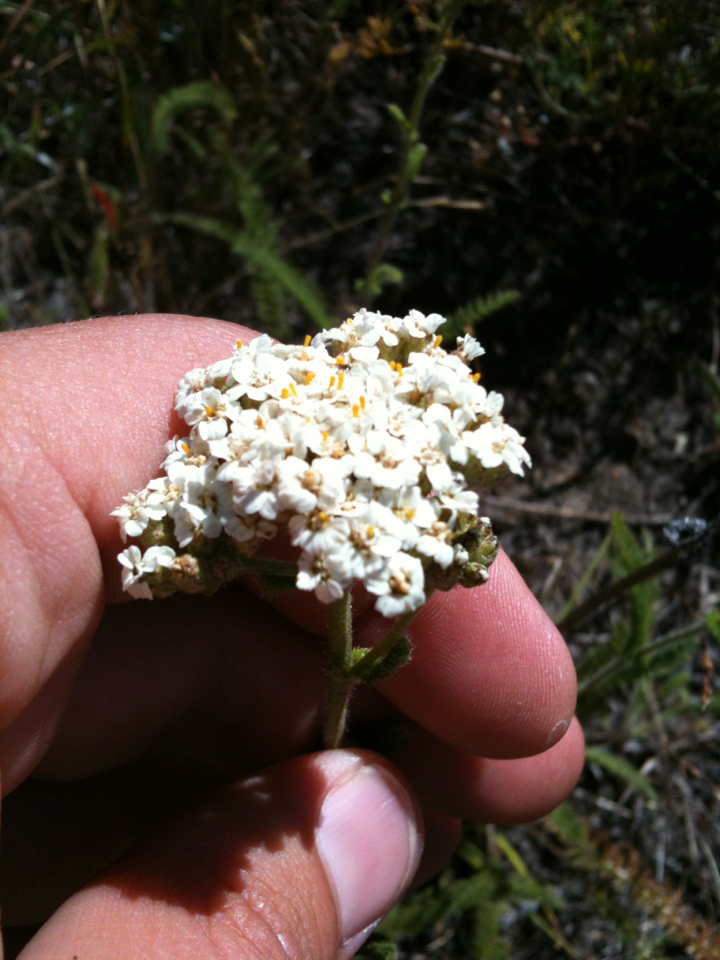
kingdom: Plantae
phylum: Tracheophyta
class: Magnoliopsida
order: Asterales
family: Asteraceae
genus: Achillea
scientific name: Achillea millefolium
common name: Yarrow
